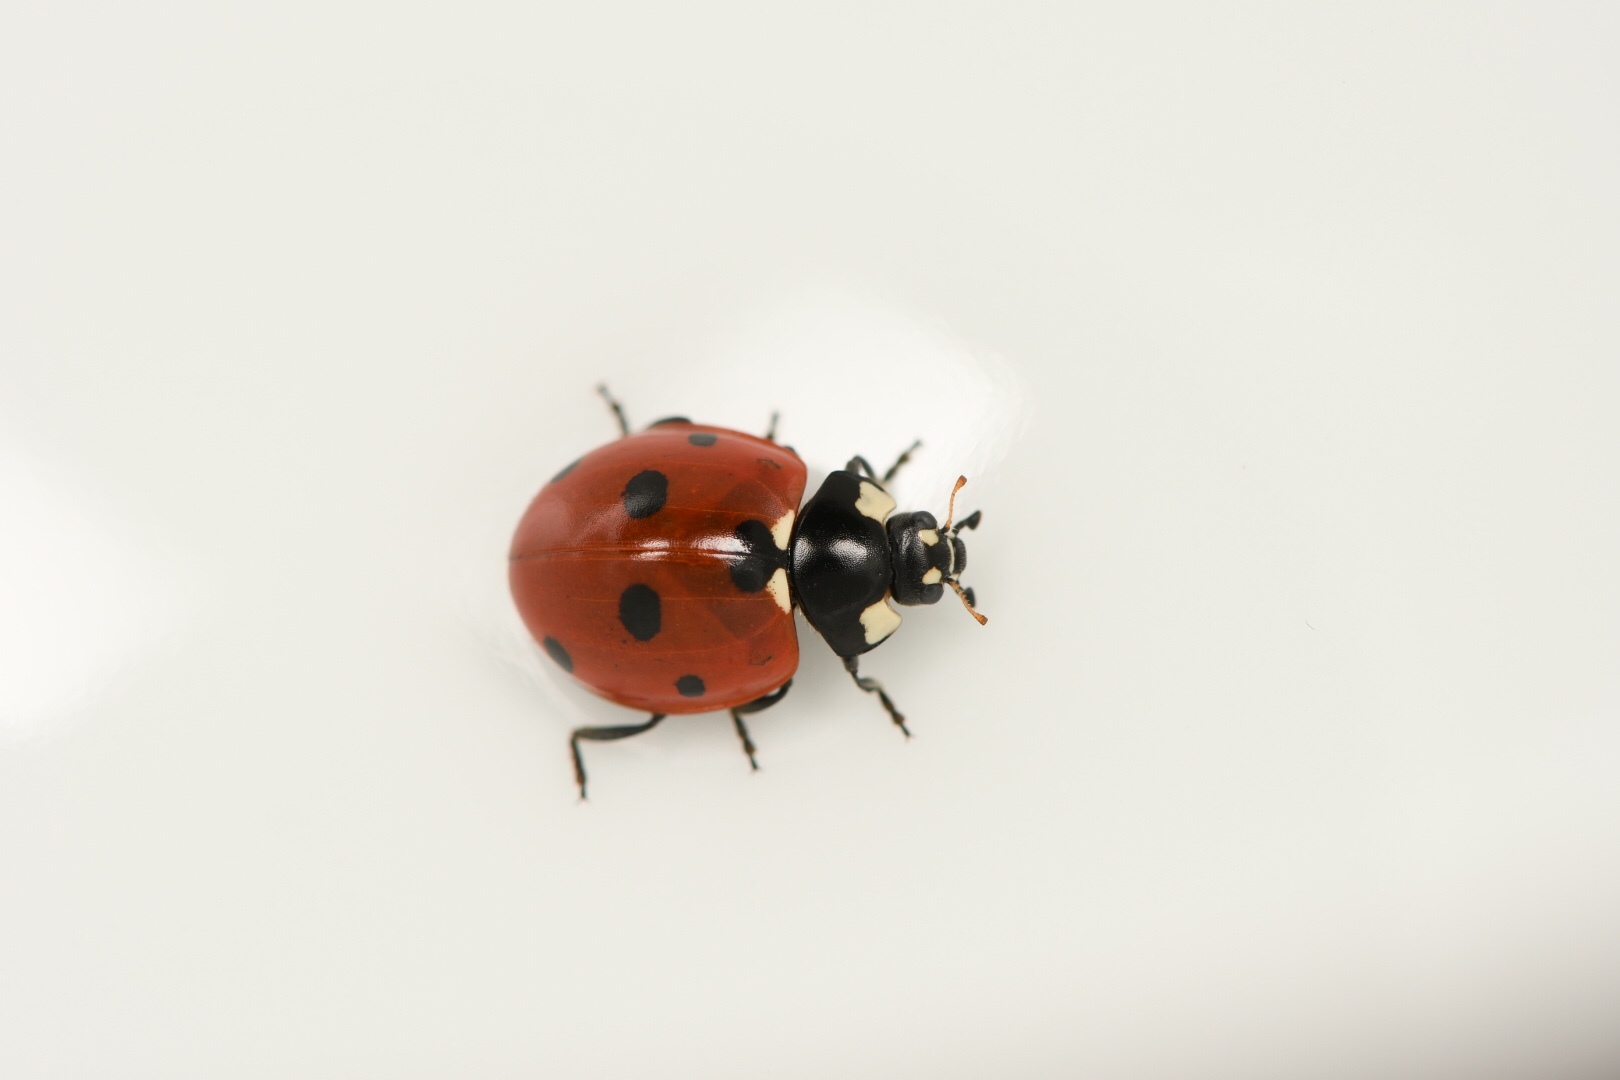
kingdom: Animalia
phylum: Arthropoda
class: Insecta
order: Coleoptera
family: Coccinellidae
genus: Coccinella
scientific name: Coccinella septempunctata
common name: Sevenspotted lady beetle
